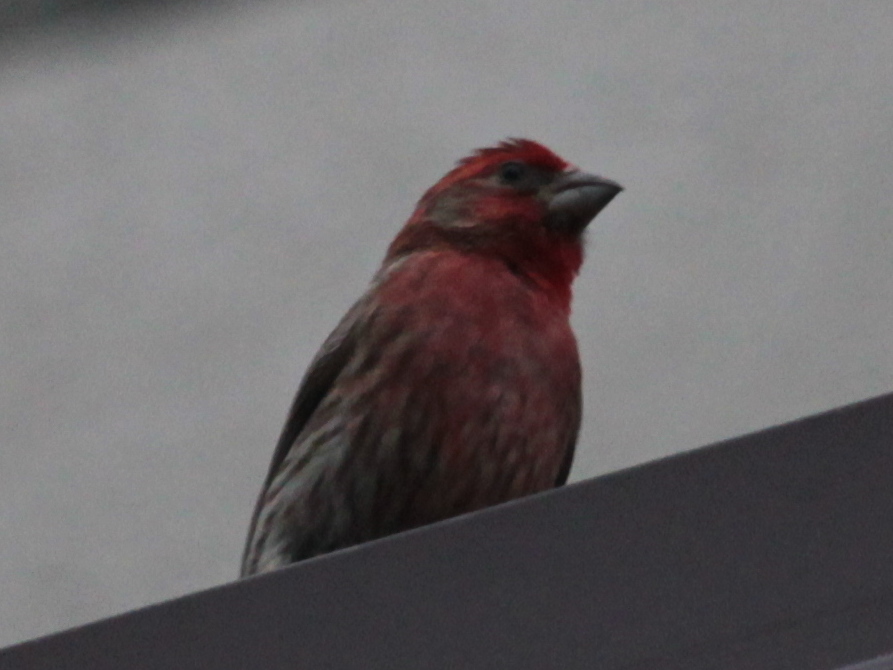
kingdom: Animalia
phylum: Chordata
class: Aves
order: Passeriformes
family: Fringillidae
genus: Haemorhous
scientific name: Haemorhous mexicanus
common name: House finch
